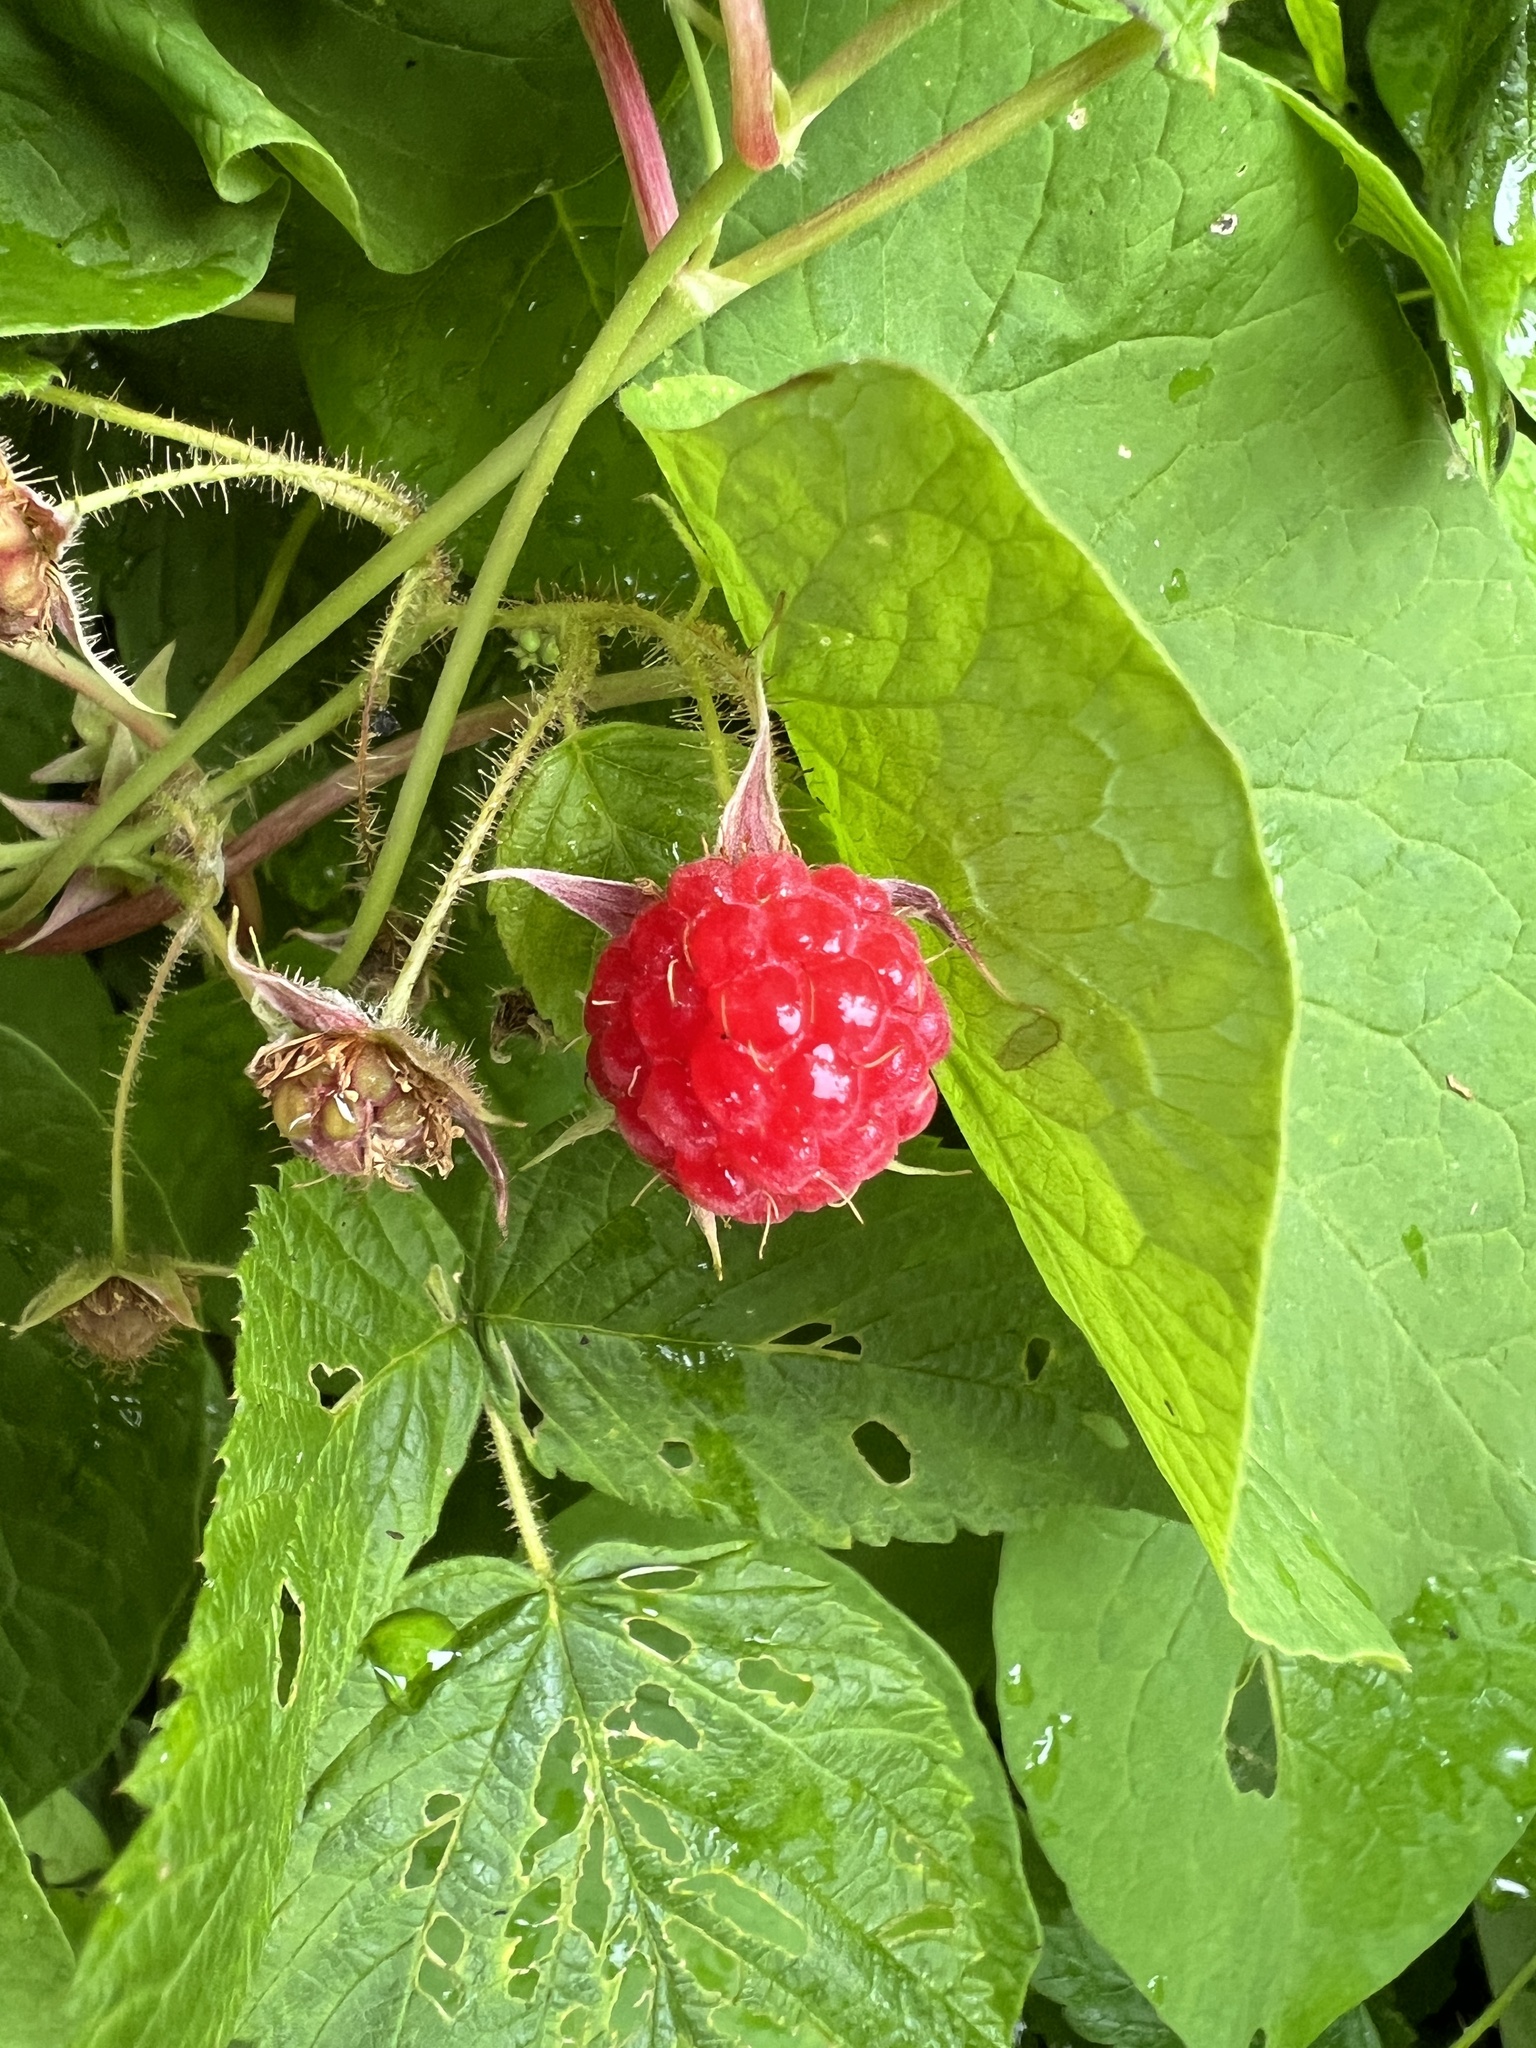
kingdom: Plantae
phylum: Tracheophyta
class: Magnoliopsida
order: Rosales
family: Rosaceae
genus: Rubus
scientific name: Rubus idaeus
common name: Raspberry
